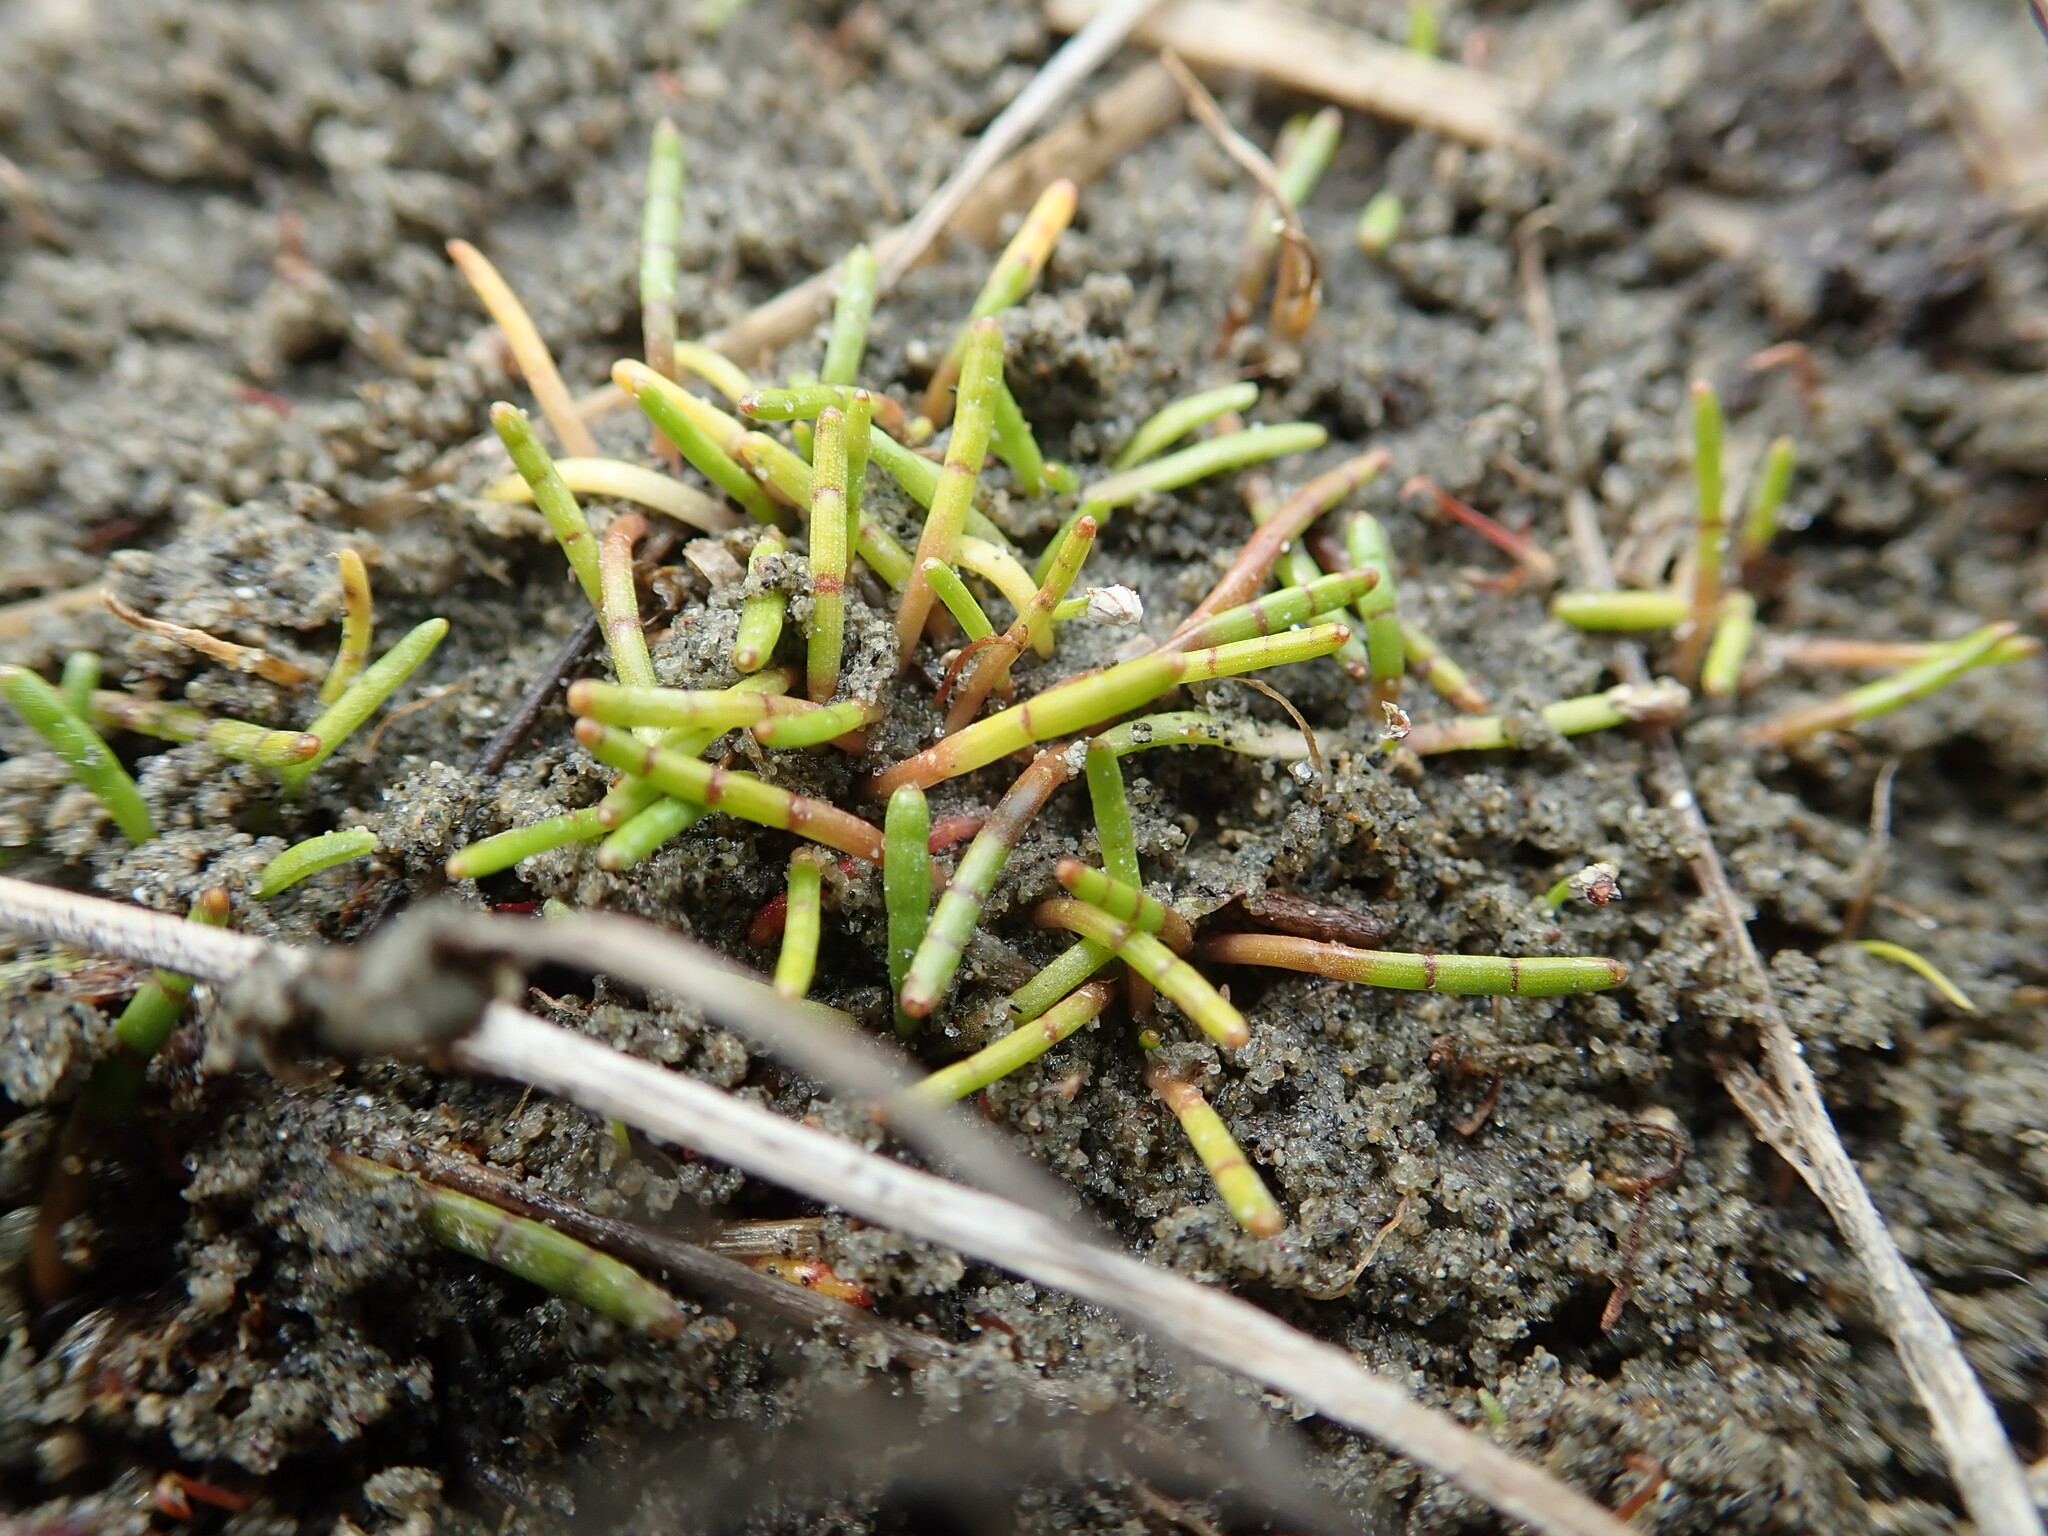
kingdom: Plantae
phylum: Tracheophyta
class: Magnoliopsida
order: Apiales
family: Apiaceae
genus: Lilaeopsis
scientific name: Lilaeopsis novae-zelandiae
